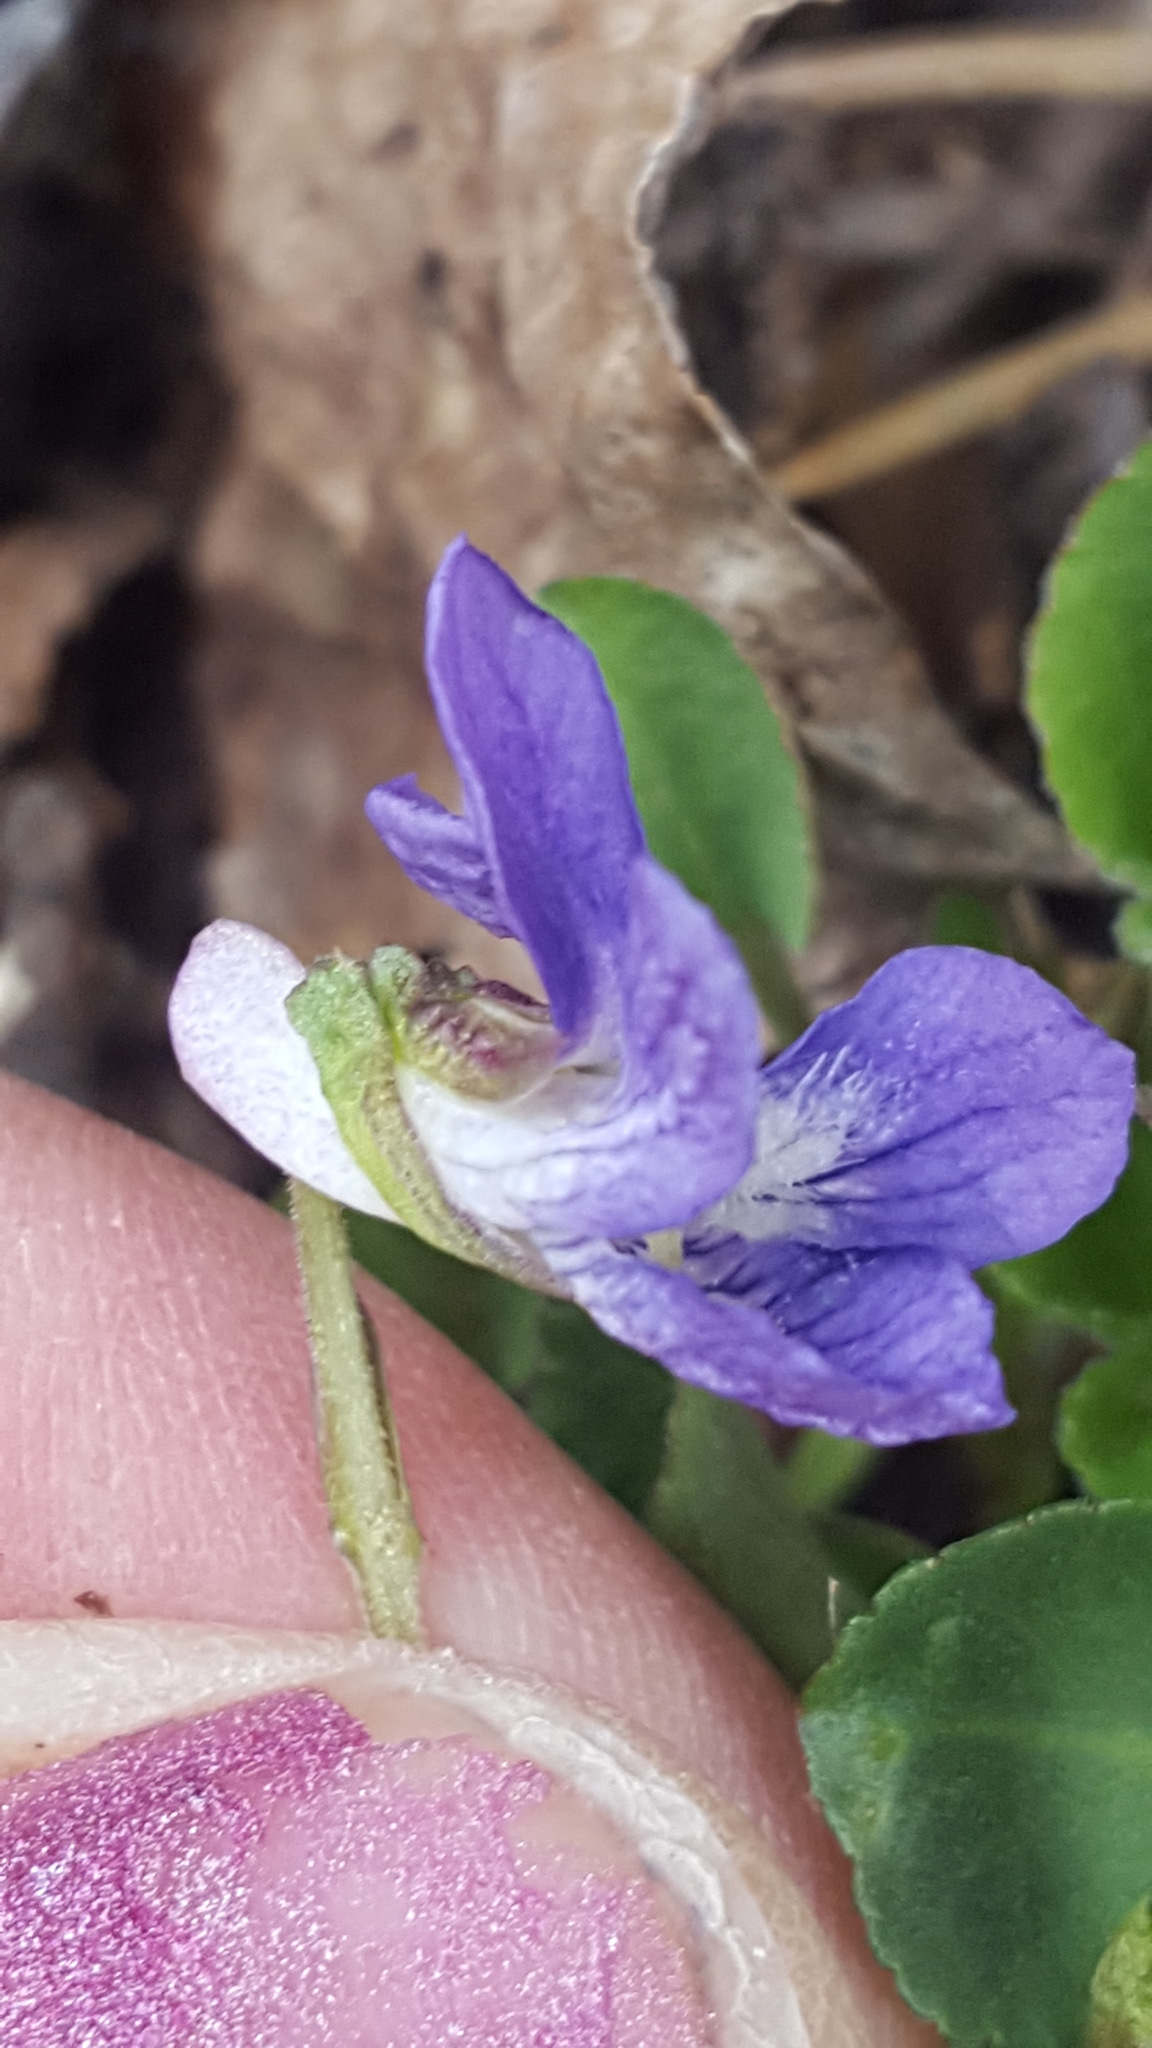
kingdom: Plantae
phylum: Tracheophyta
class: Magnoliopsida
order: Malpighiales
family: Violaceae
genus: Viola
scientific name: Viola adunca
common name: Sand violet
